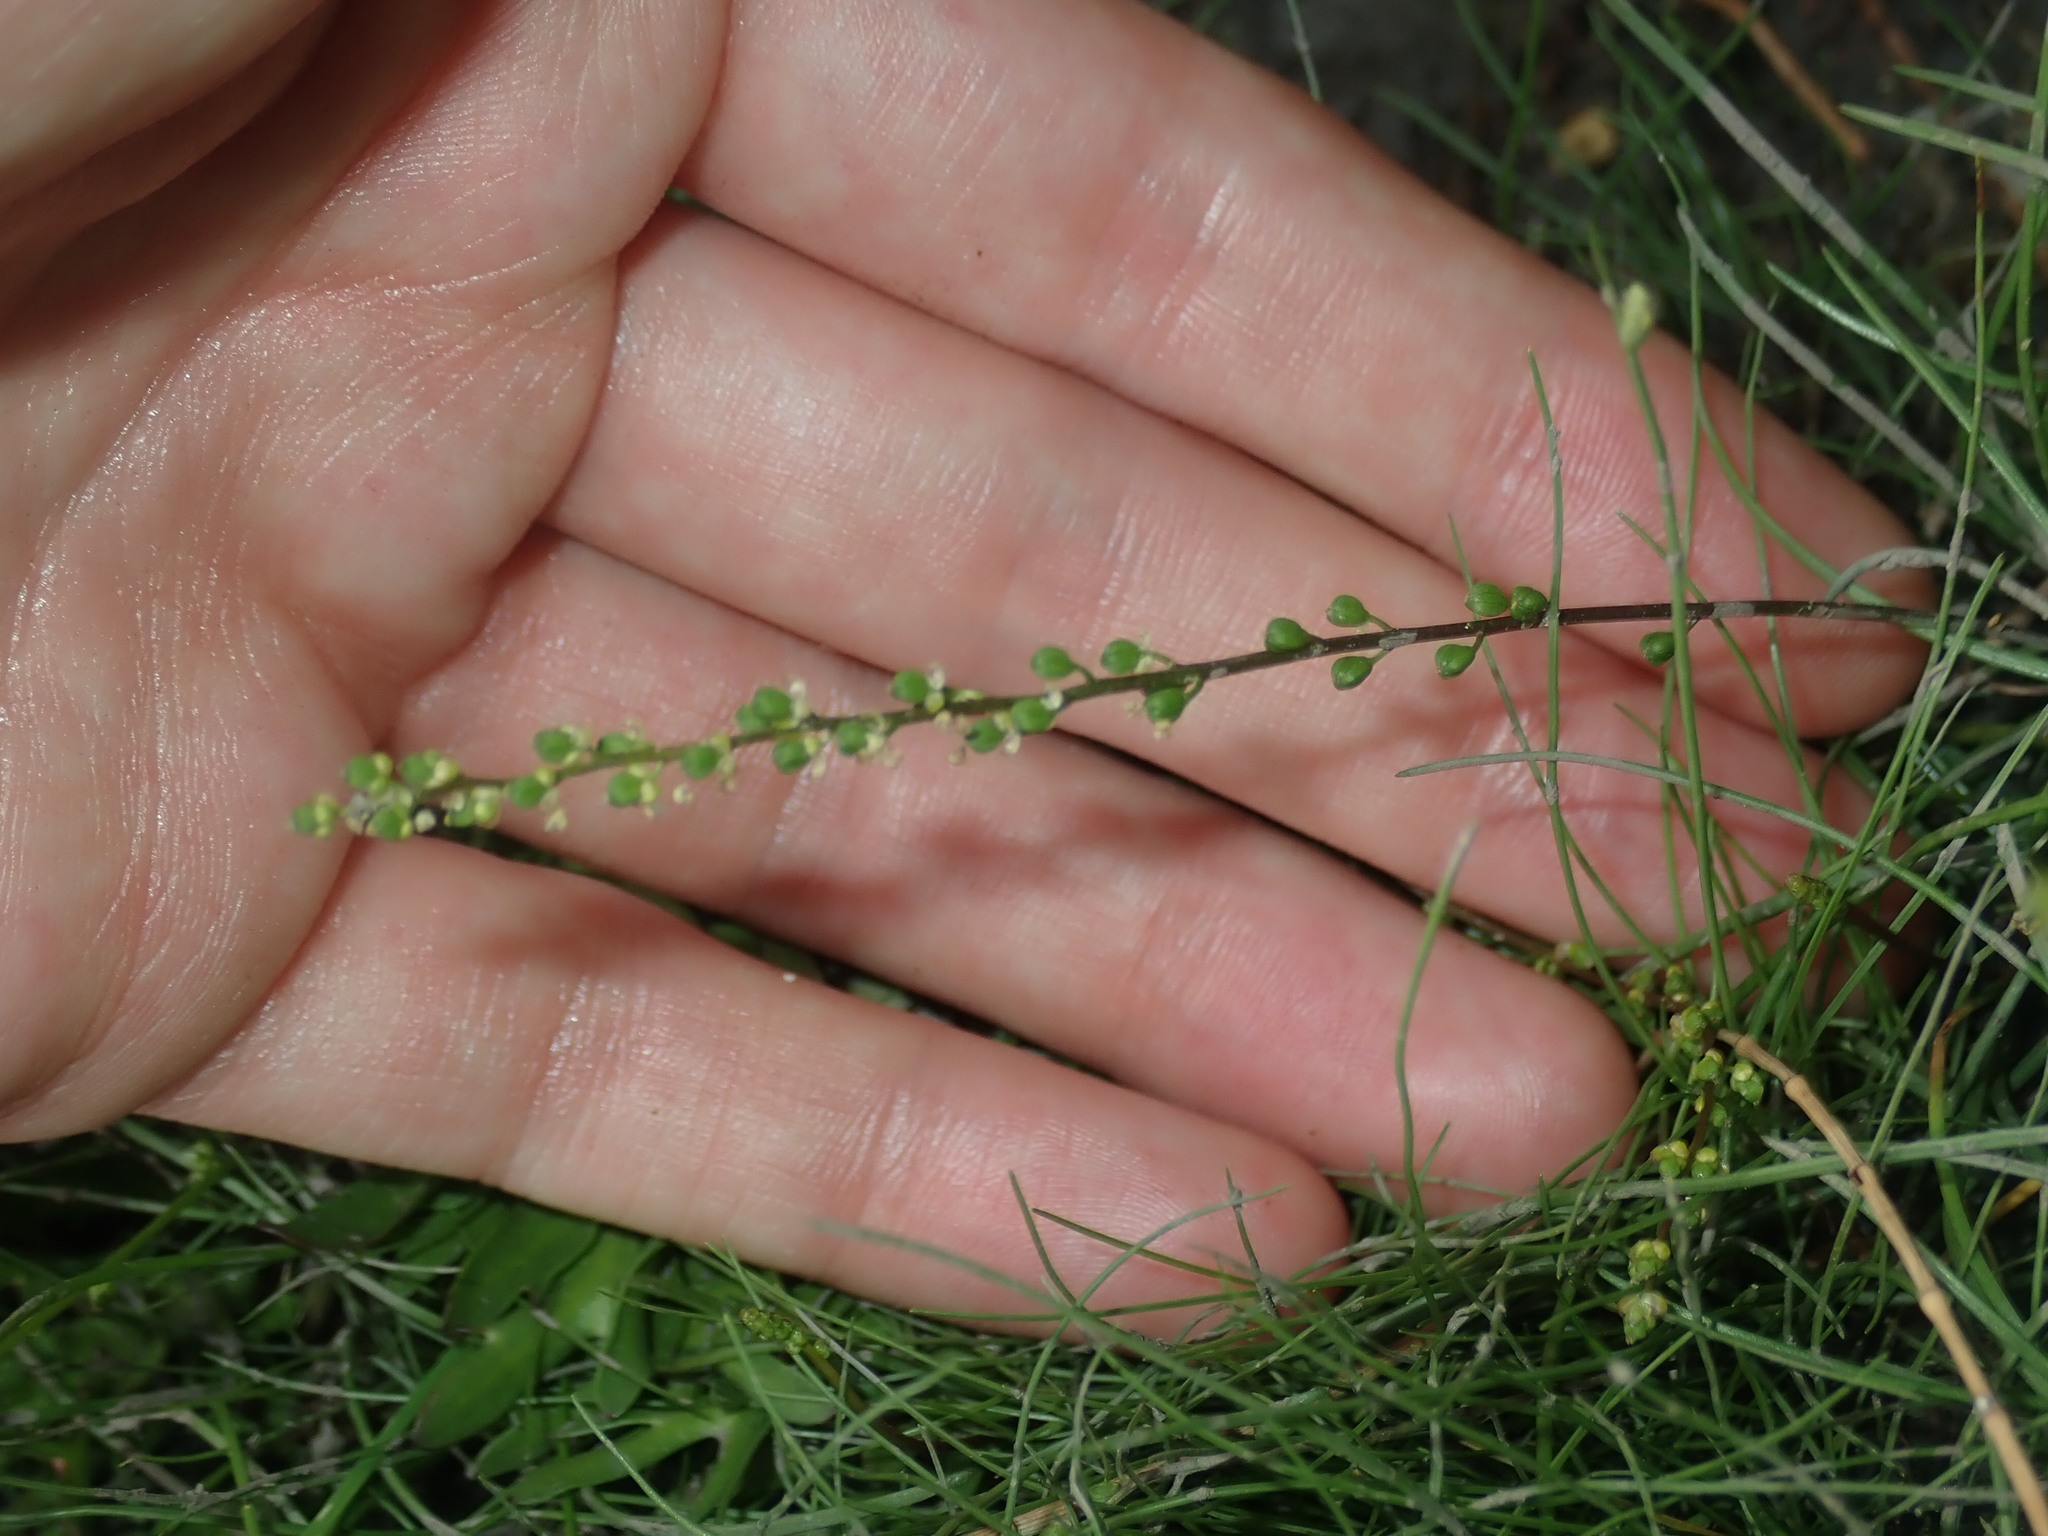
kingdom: Plantae
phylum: Tracheophyta
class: Liliopsida
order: Alismatales
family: Juncaginaceae
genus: Triglochin
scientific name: Triglochin striata
